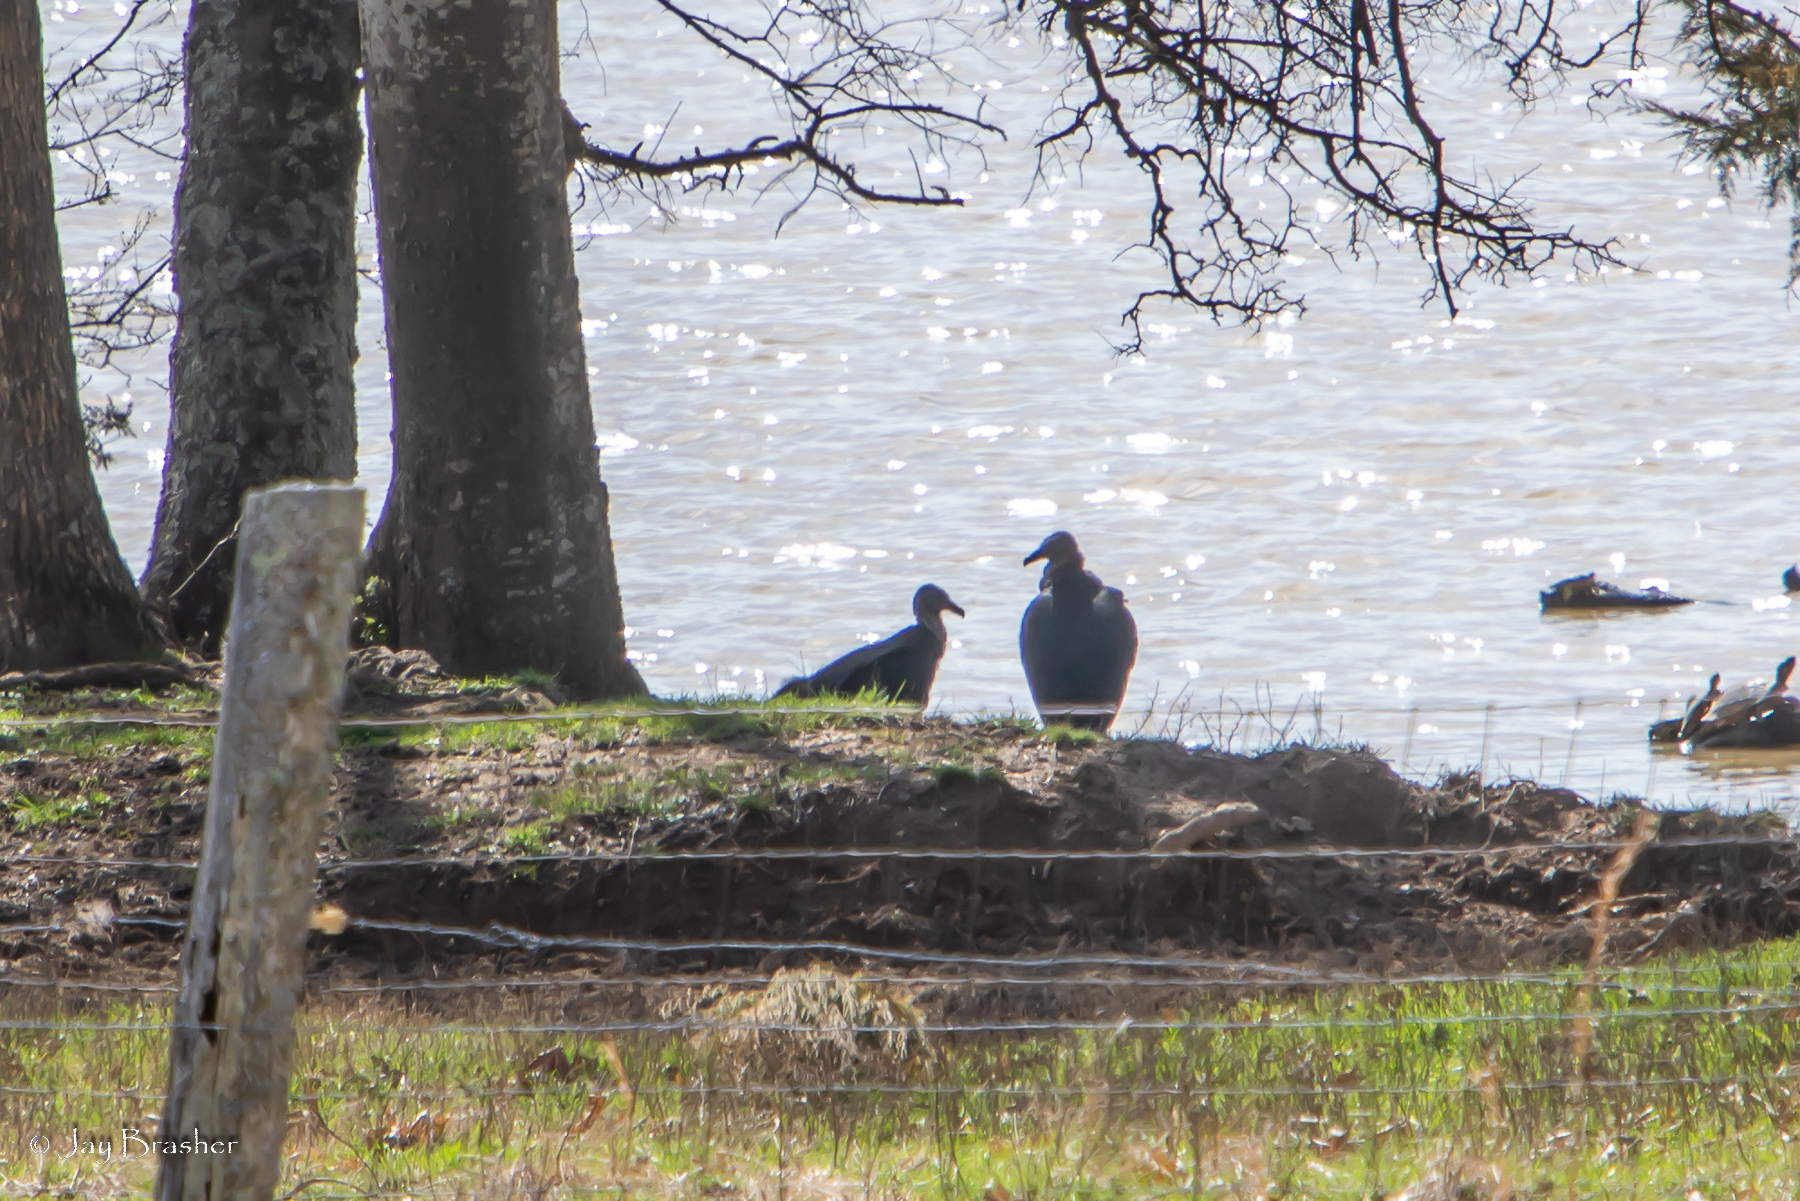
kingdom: Animalia
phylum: Chordata
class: Aves
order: Accipitriformes
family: Cathartidae
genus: Coragyps
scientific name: Coragyps atratus
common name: Black vulture
